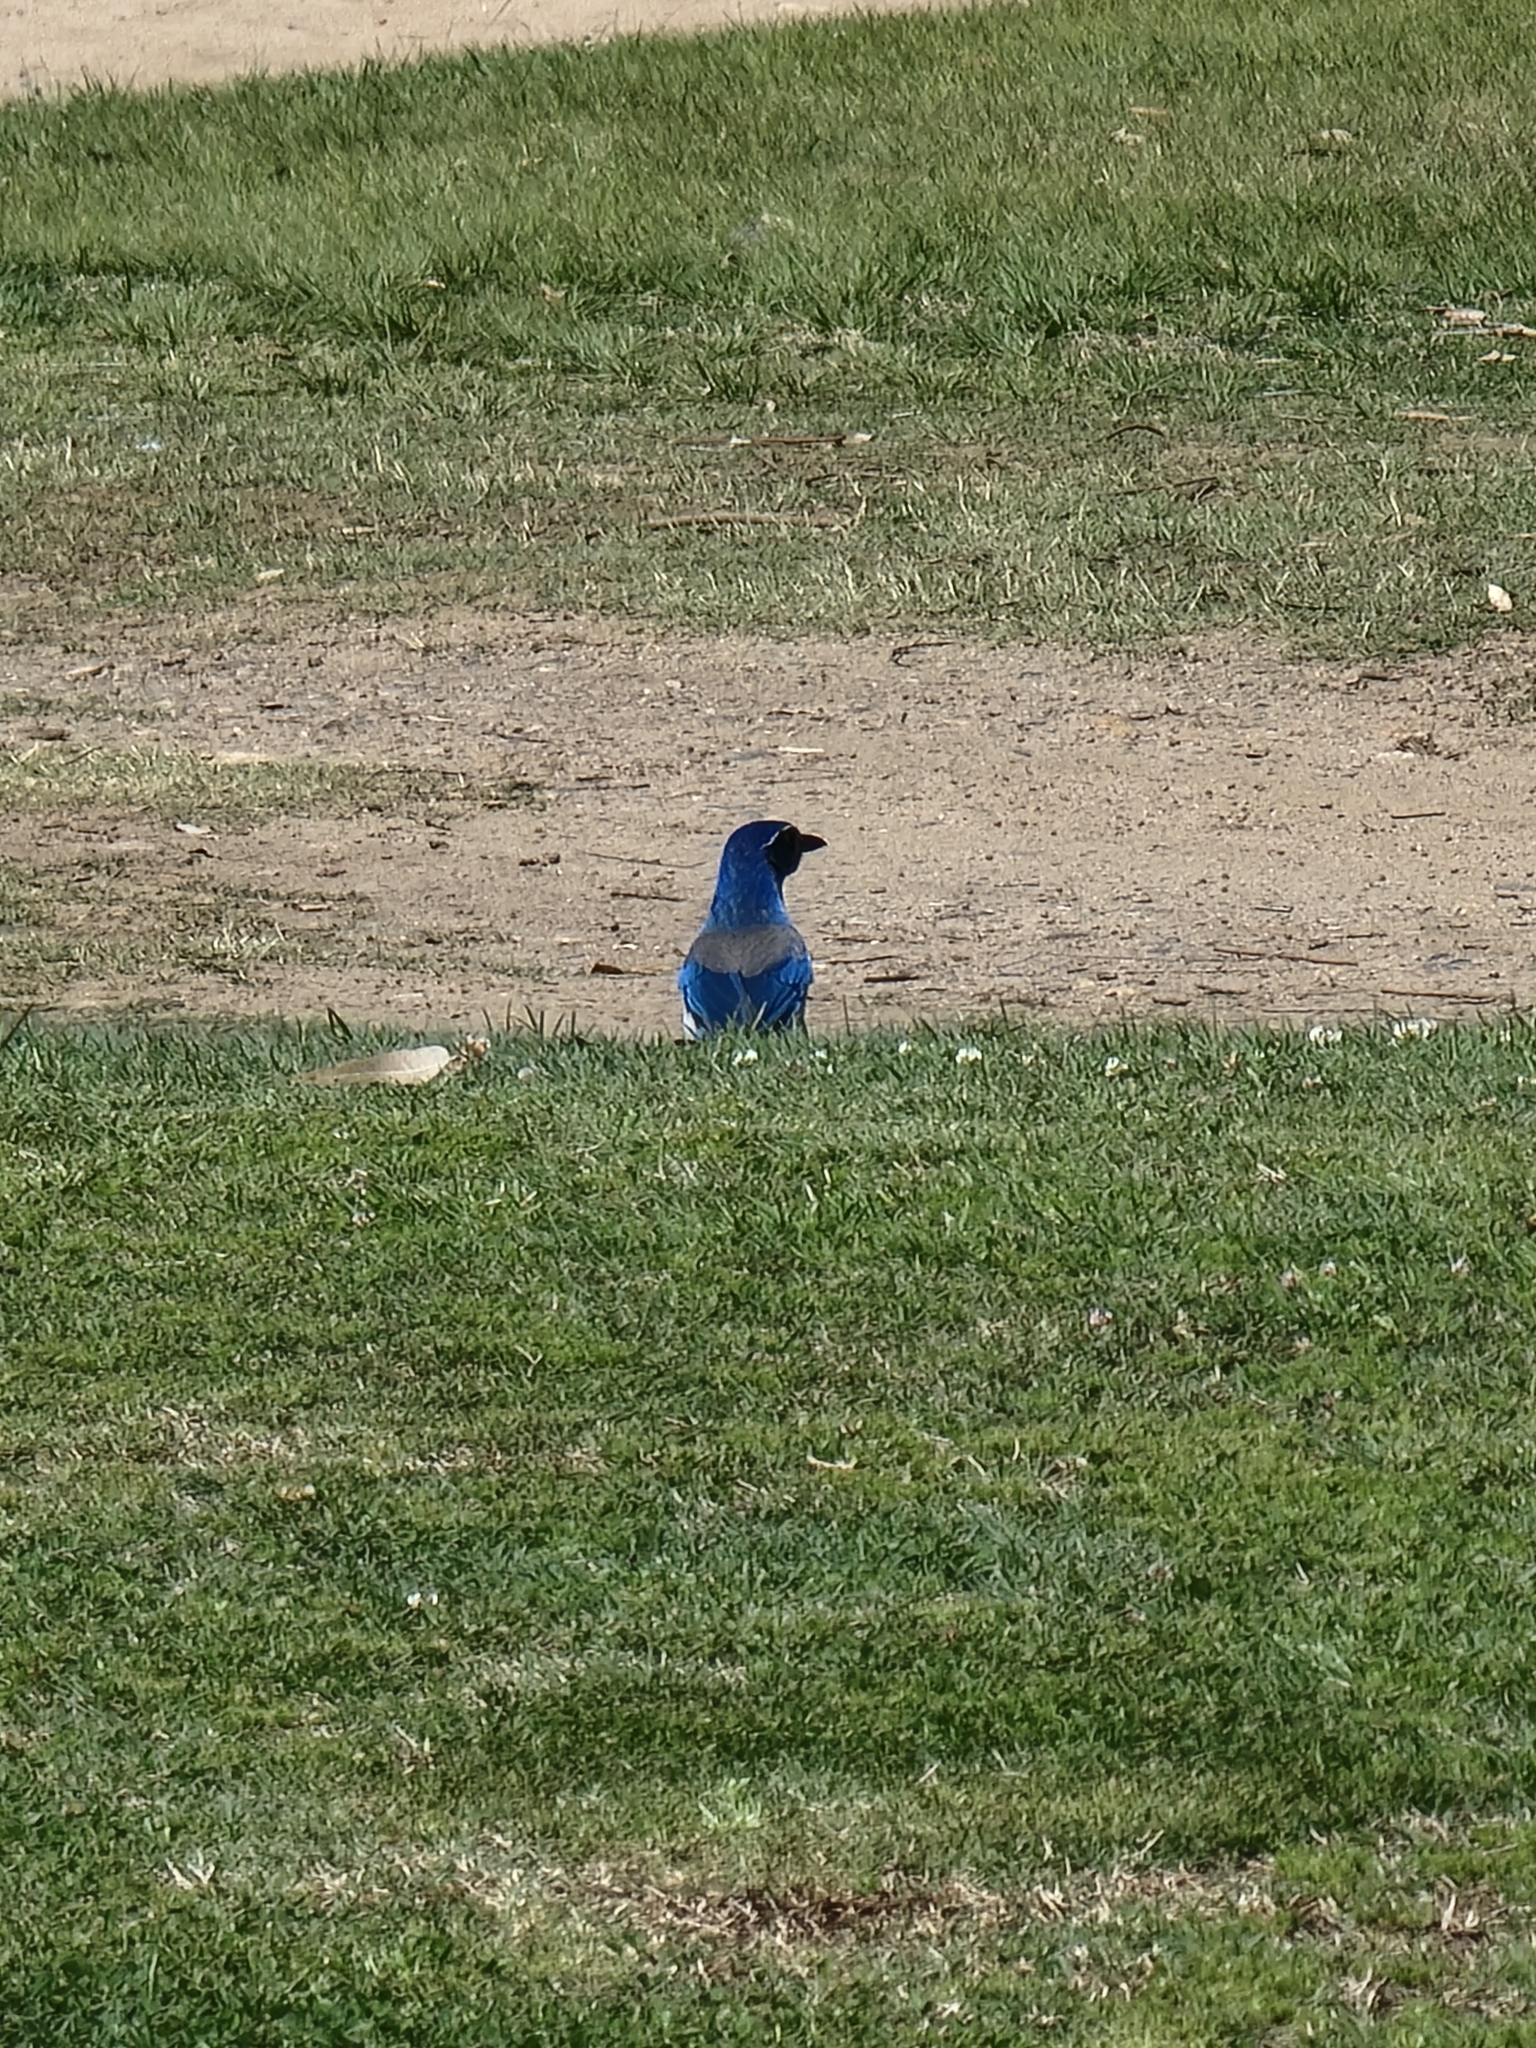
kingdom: Animalia
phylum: Chordata
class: Aves
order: Passeriformes
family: Corvidae
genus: Aphelocoma
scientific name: Aphelocoma californica
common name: California scrub-jay
